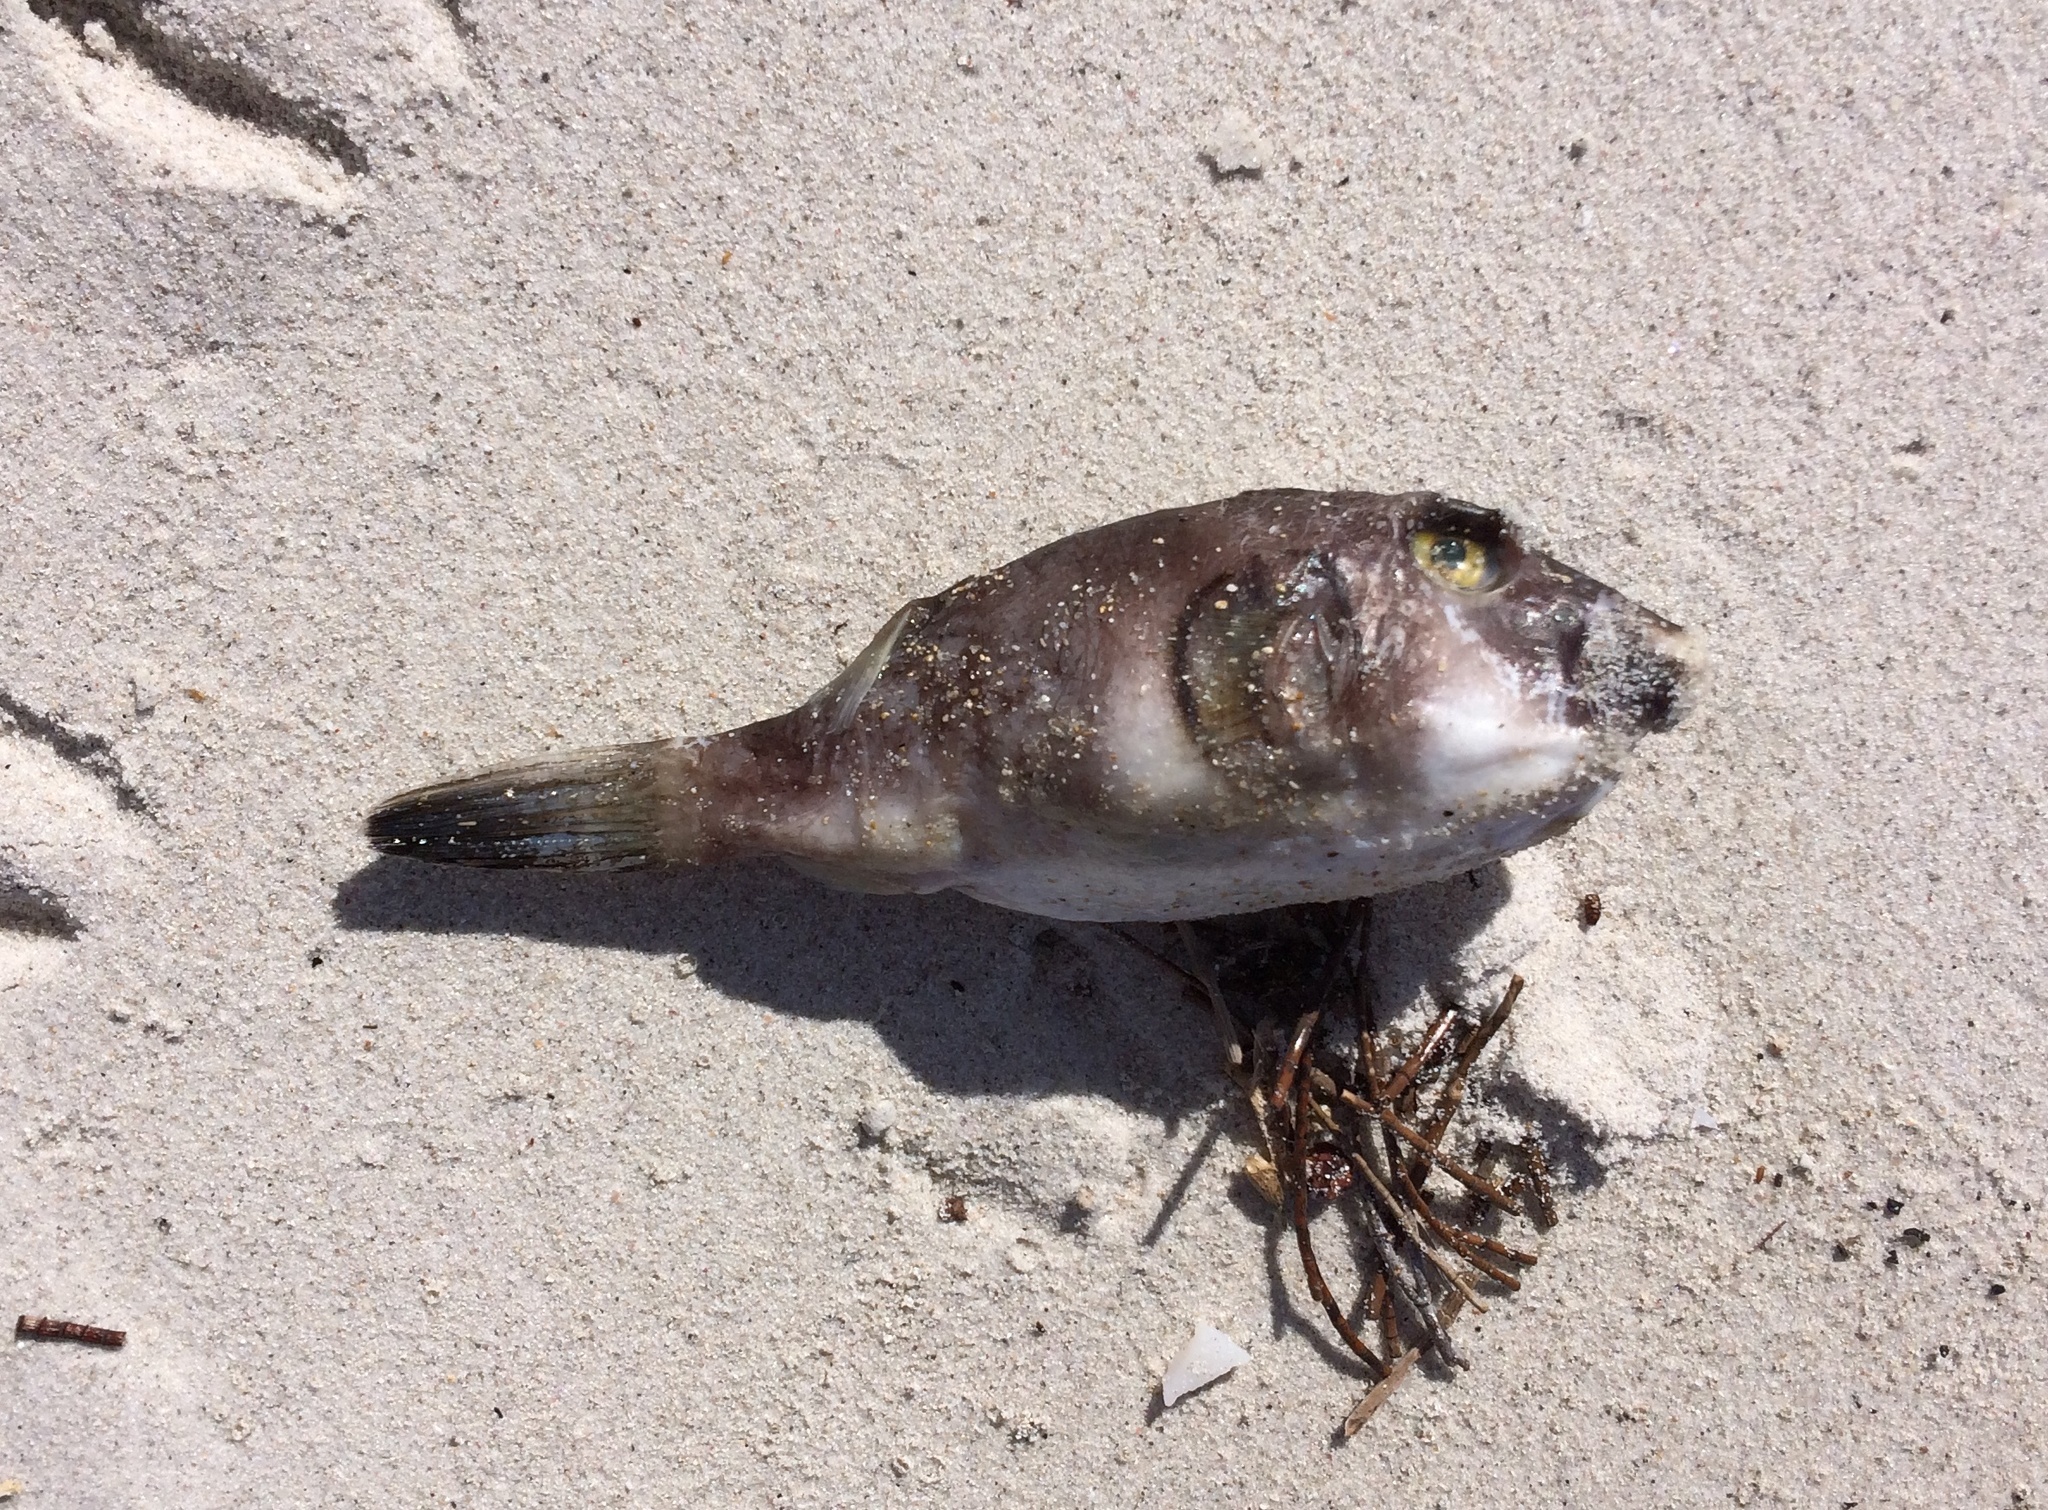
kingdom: Animalia
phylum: Chordata
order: Tetraodontiformes
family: Tetraodontidae
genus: Omegophora
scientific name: Omegophora armilla
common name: Ringed pufferfish
